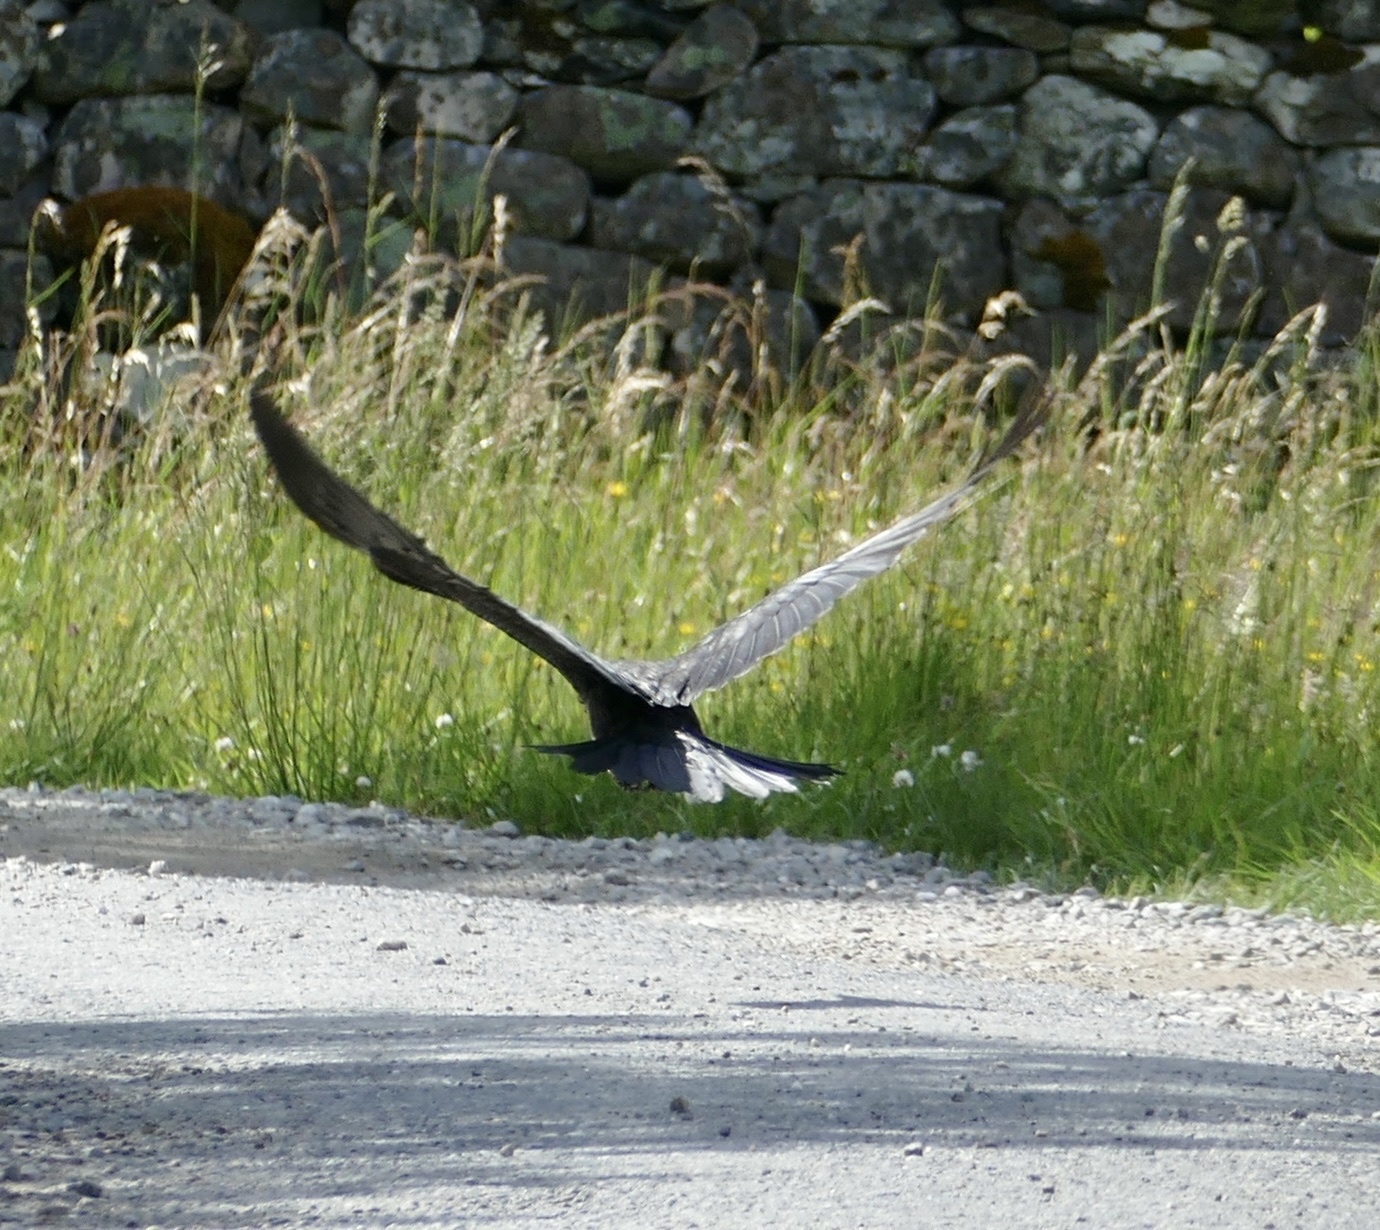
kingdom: Animalia
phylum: Chordata
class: Aves
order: Passeriformes
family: Corvidae
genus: Corvus
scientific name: Corvus corax
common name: Common raven
